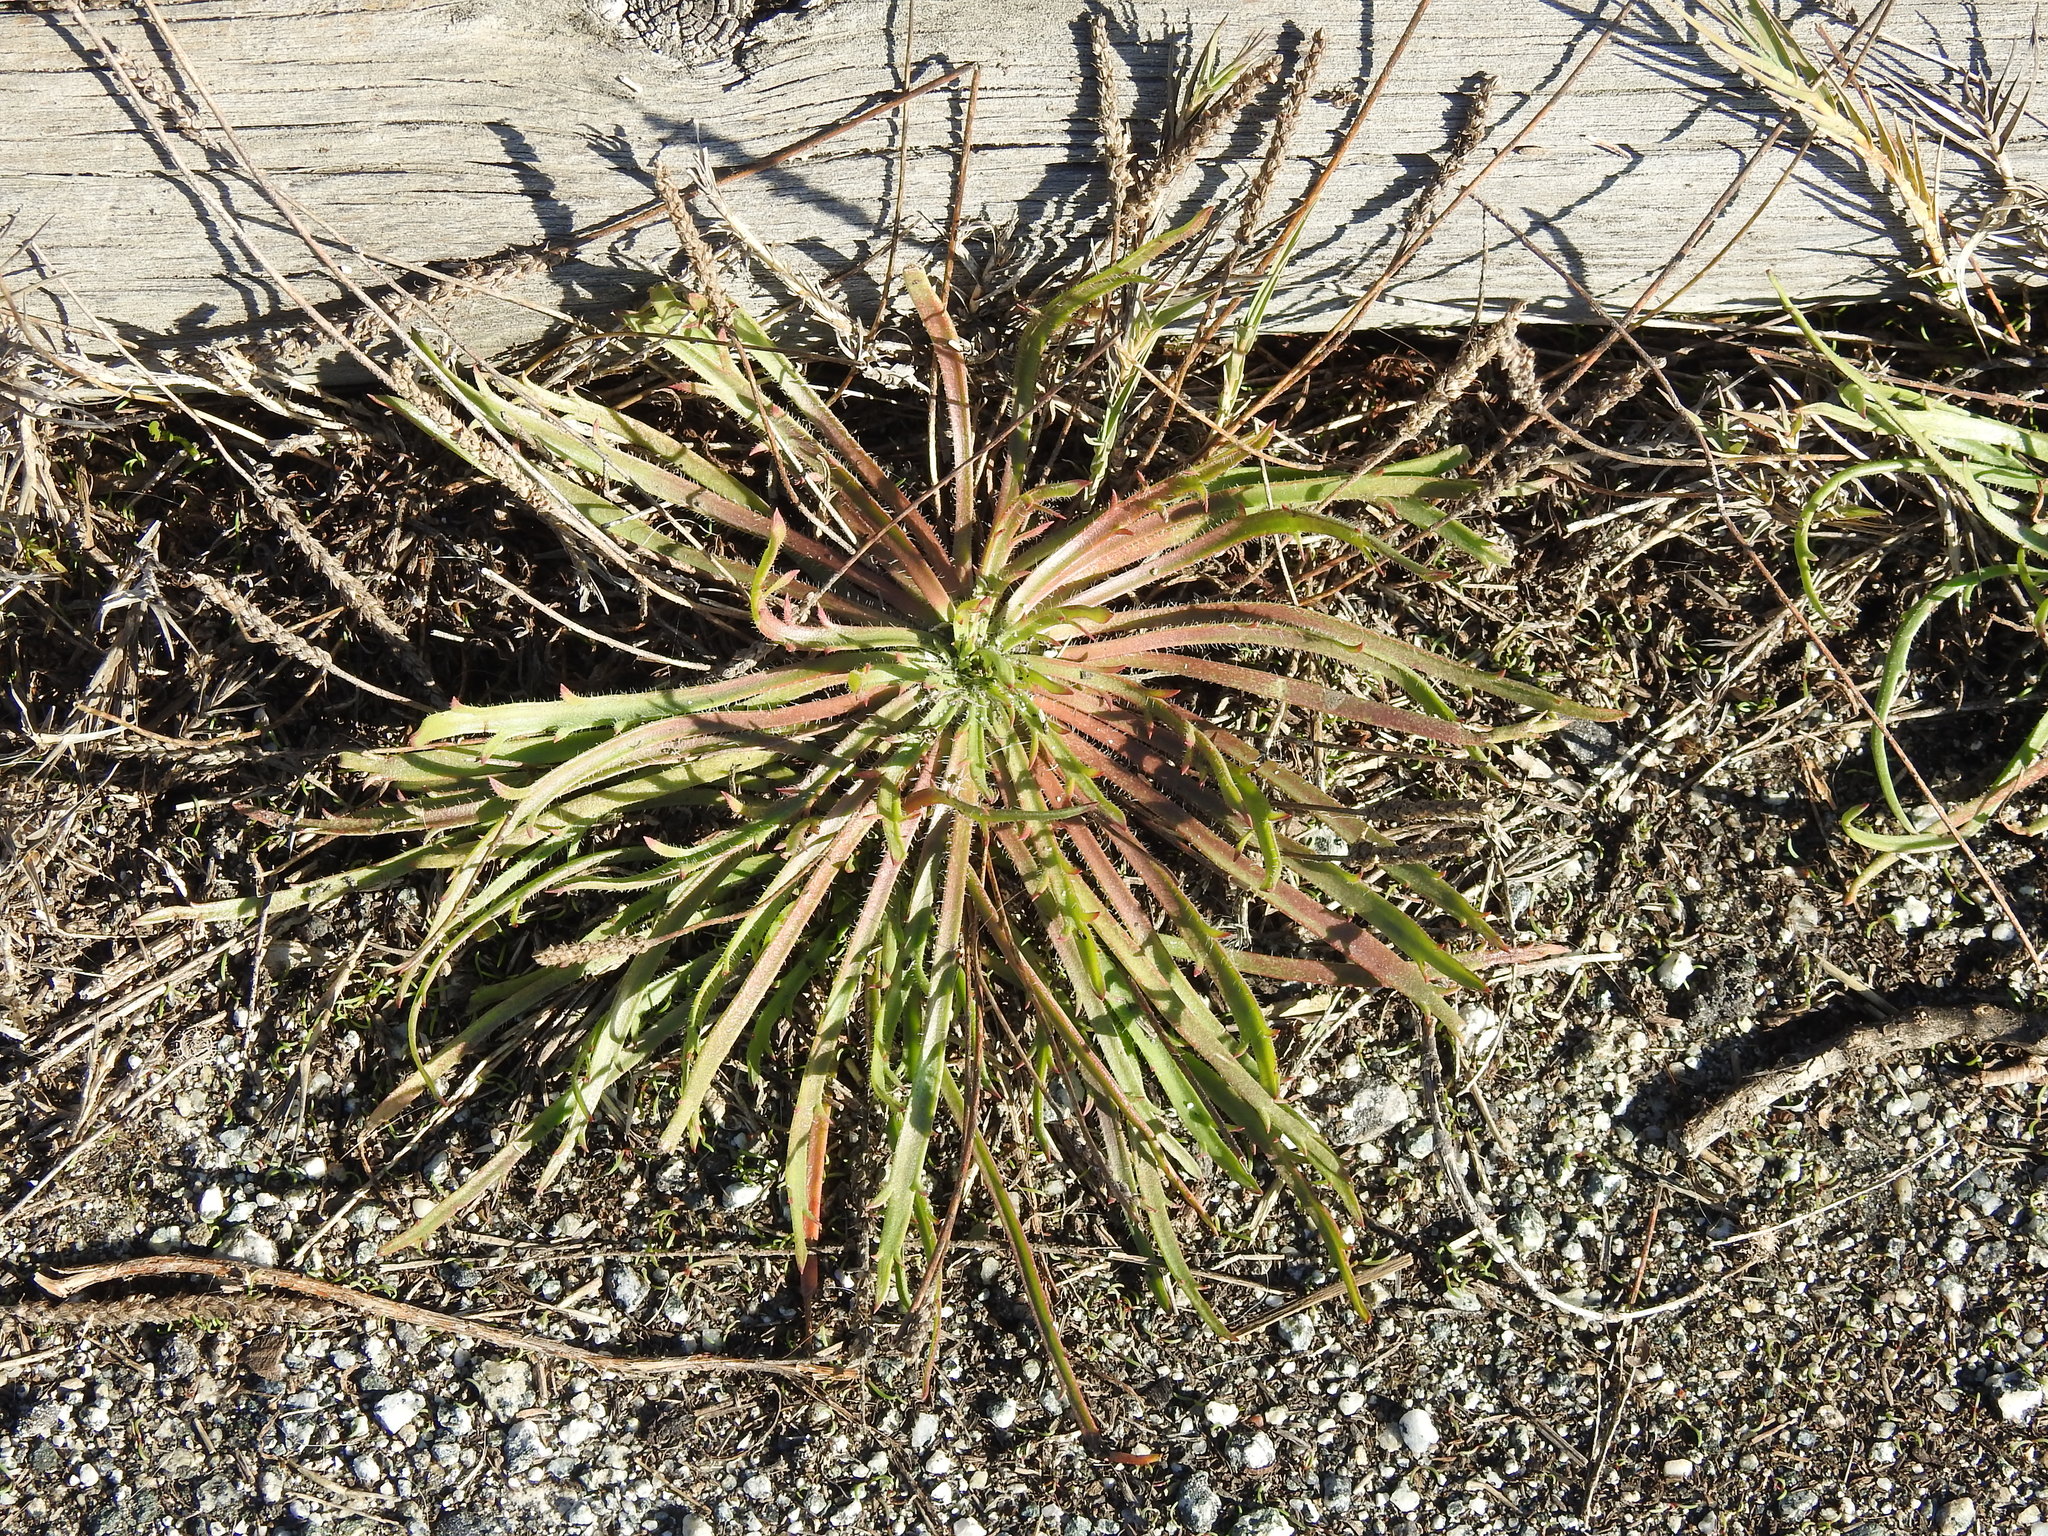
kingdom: Plantae
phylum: Tracheophyta
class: Magnoliopsida
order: Lamiales
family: Plantaginaceae
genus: Plantago
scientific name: Plantago coronopus
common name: Buck's-horn plantain
